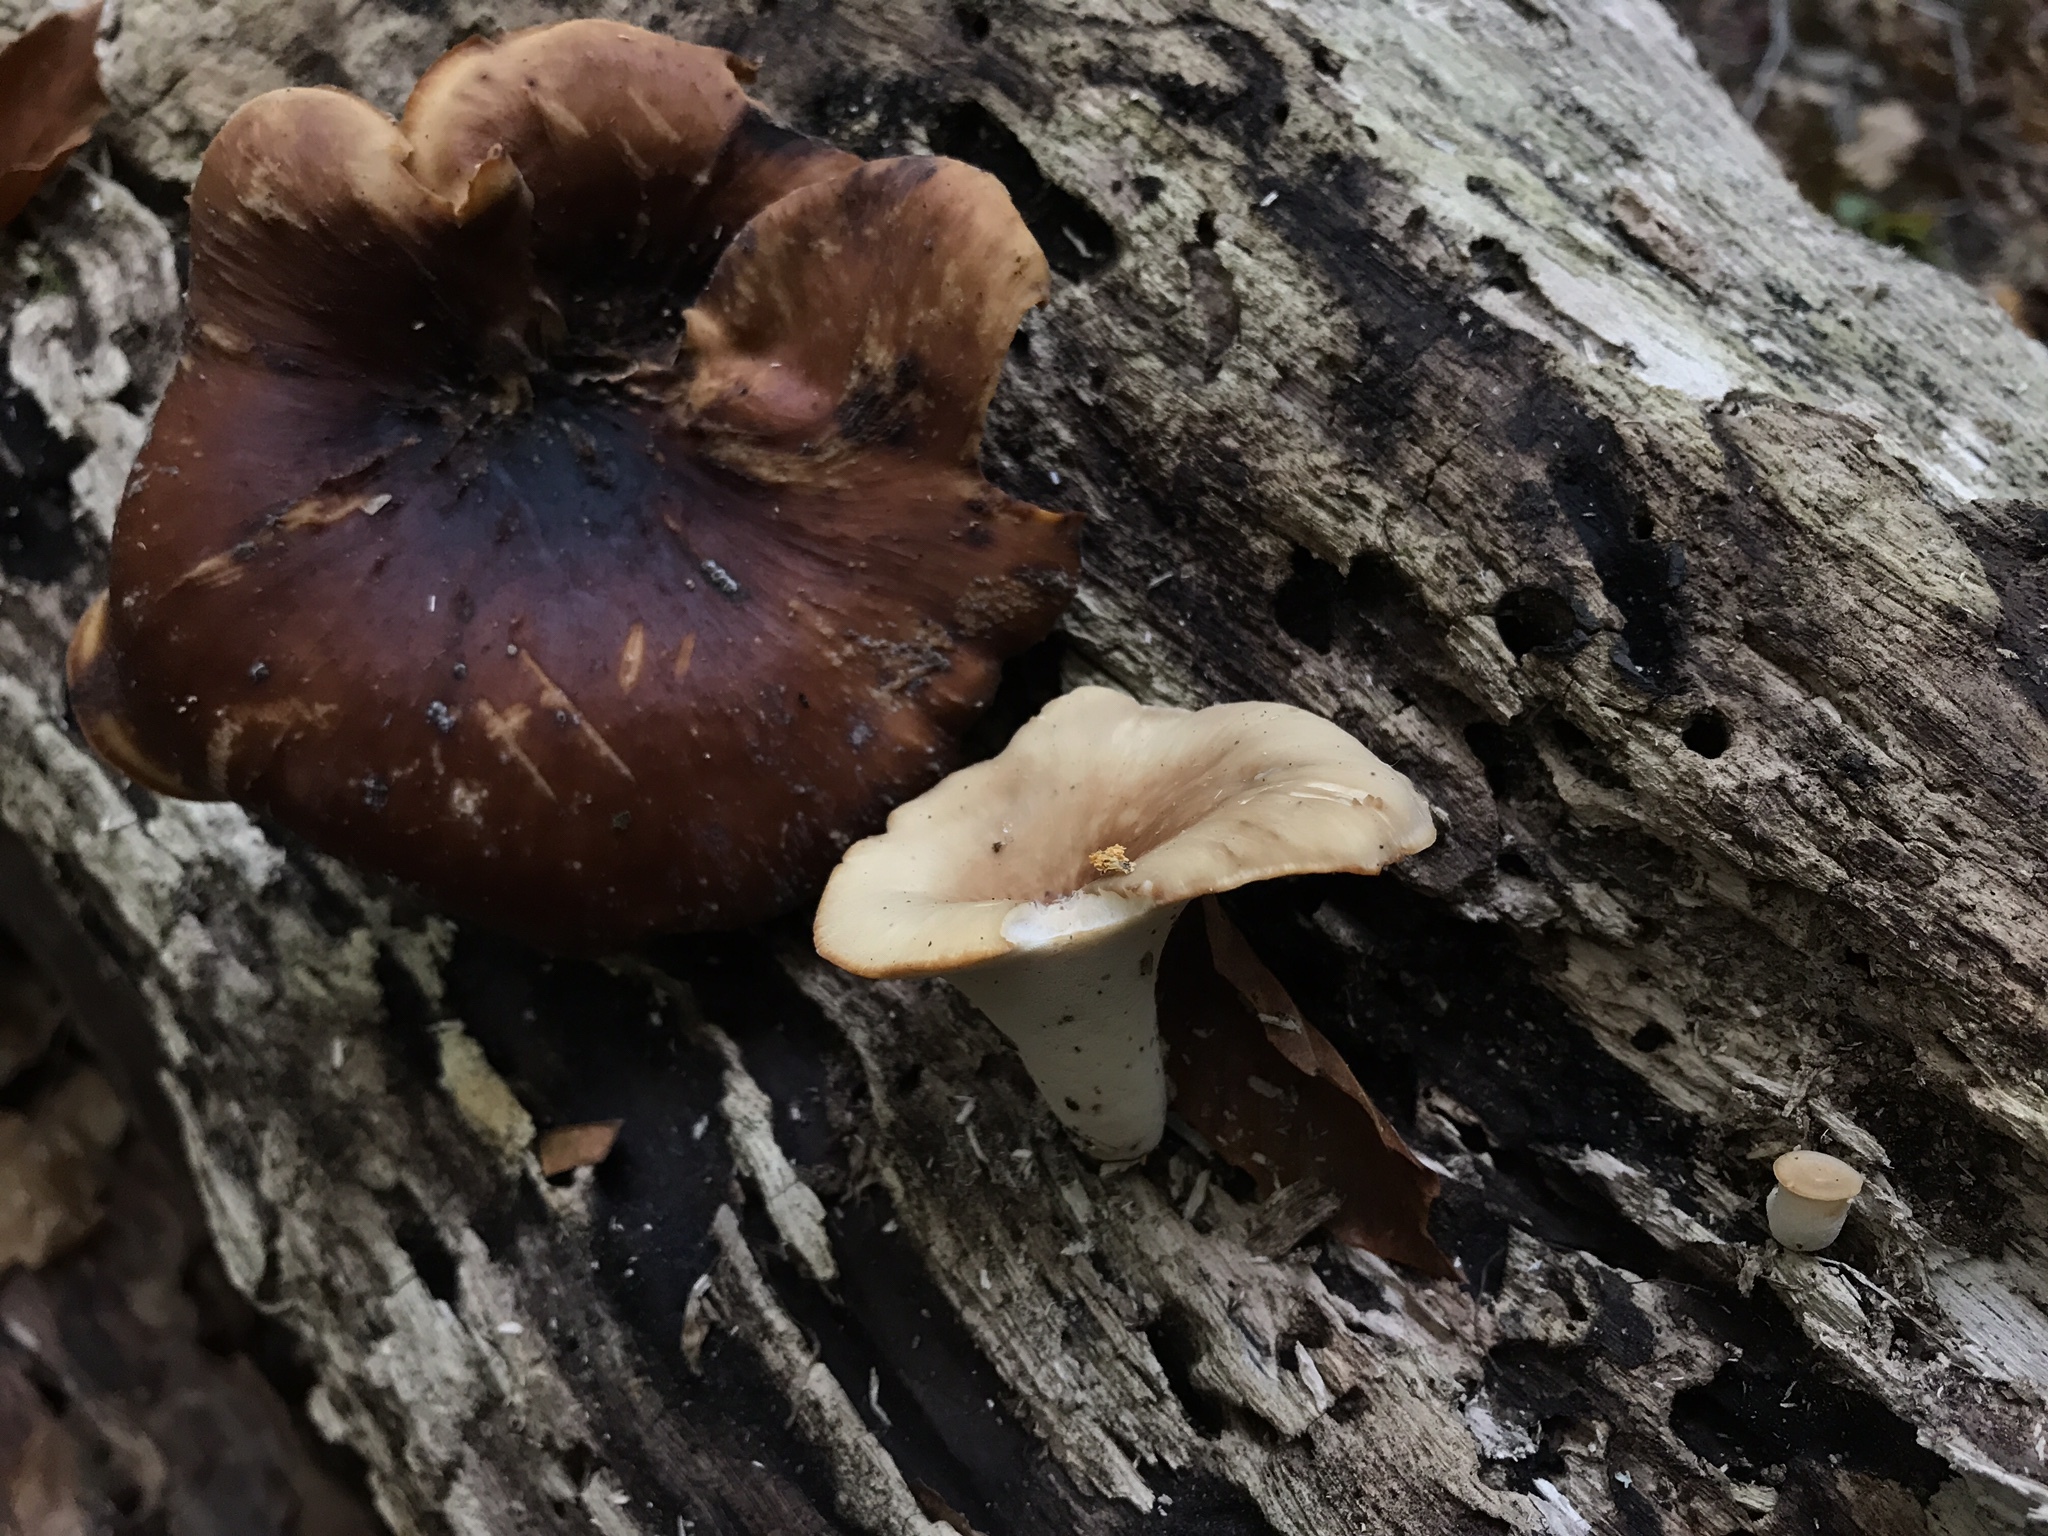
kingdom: Fungi
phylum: Basidiomycota
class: Agaricomycetes
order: Polyporales
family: Polyporaceae
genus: Picipes
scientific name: Picipes badius
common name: Bay polypore
